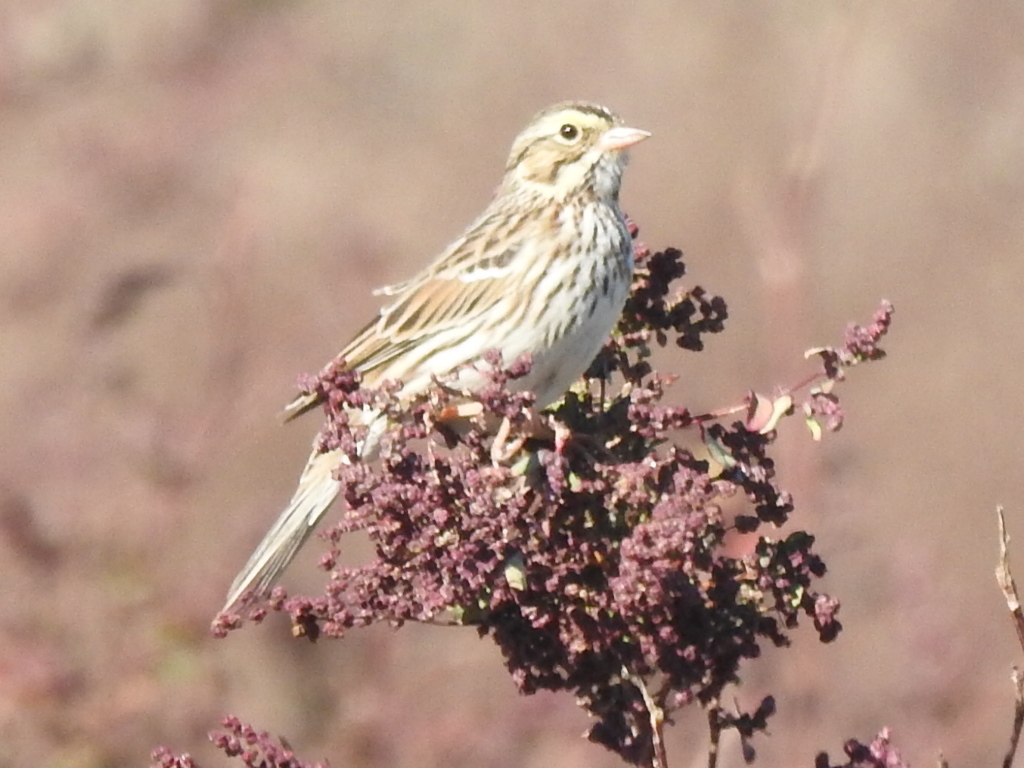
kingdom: Animalia
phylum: Chordata
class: Aves
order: Passeriformes
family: Passerellidae
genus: Passerculus
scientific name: Passerculus sandwichensis
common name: Savannah sparrow
